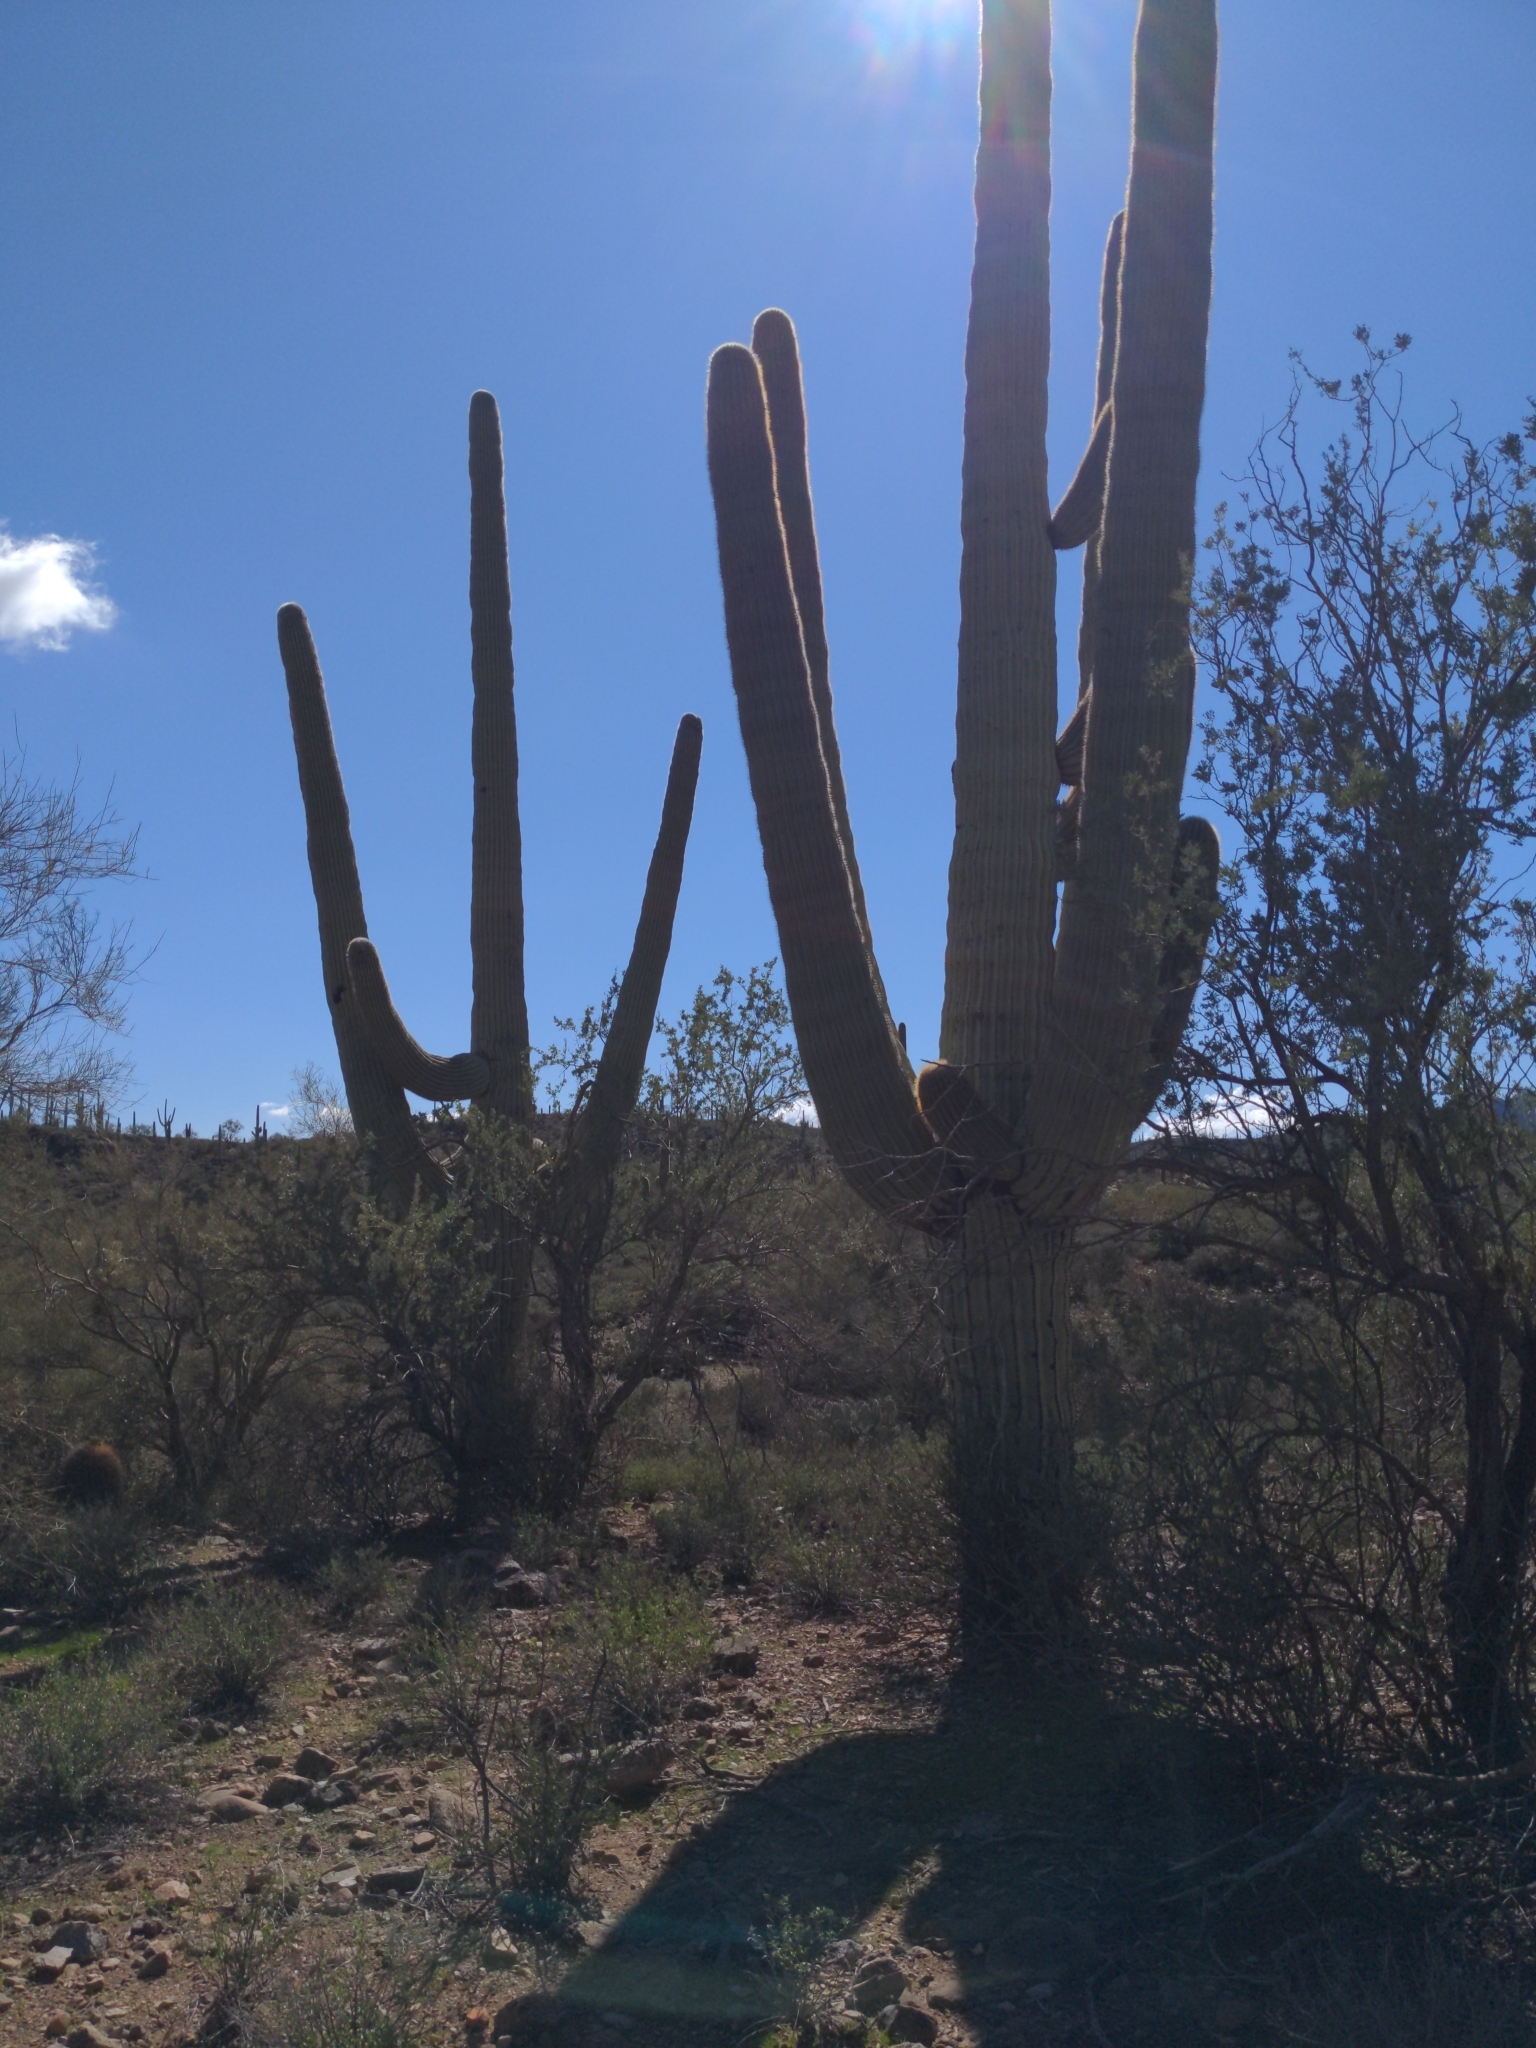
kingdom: Plantae
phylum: Tracheophyta
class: Magnoliopsida
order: Caryophyllales
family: Cactaceae
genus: Carnegiea
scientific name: Carnegiea gigantea
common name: Saguaro
